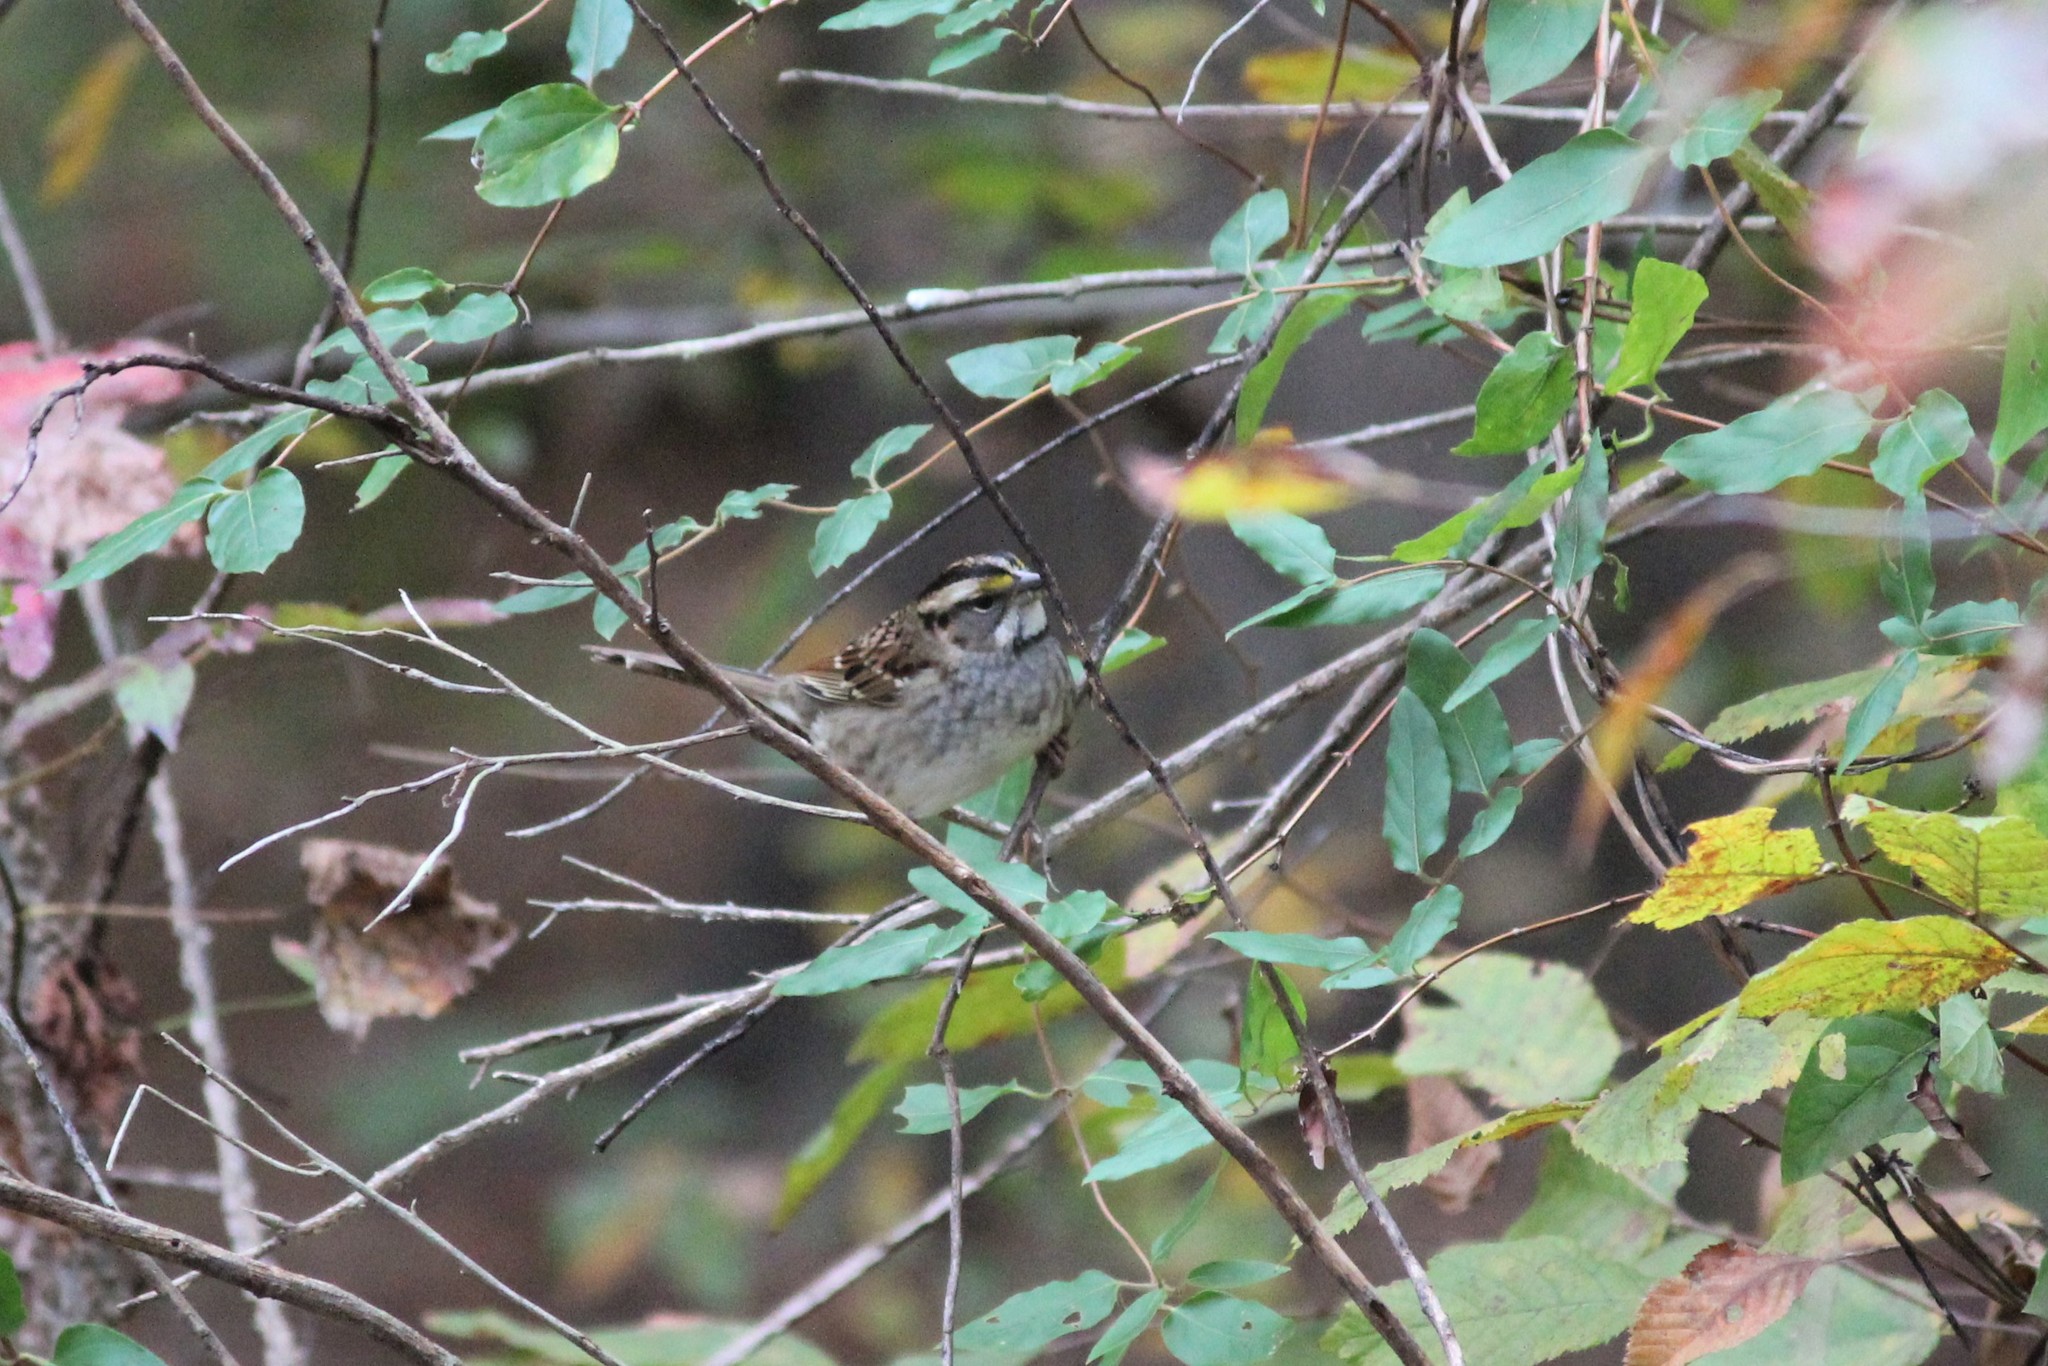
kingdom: Animalia
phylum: Chordata
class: Aves
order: Passeriformes
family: Passerellidae
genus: Zonotrichia
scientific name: Zonotrichia albicollis
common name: White-throated sparrow
